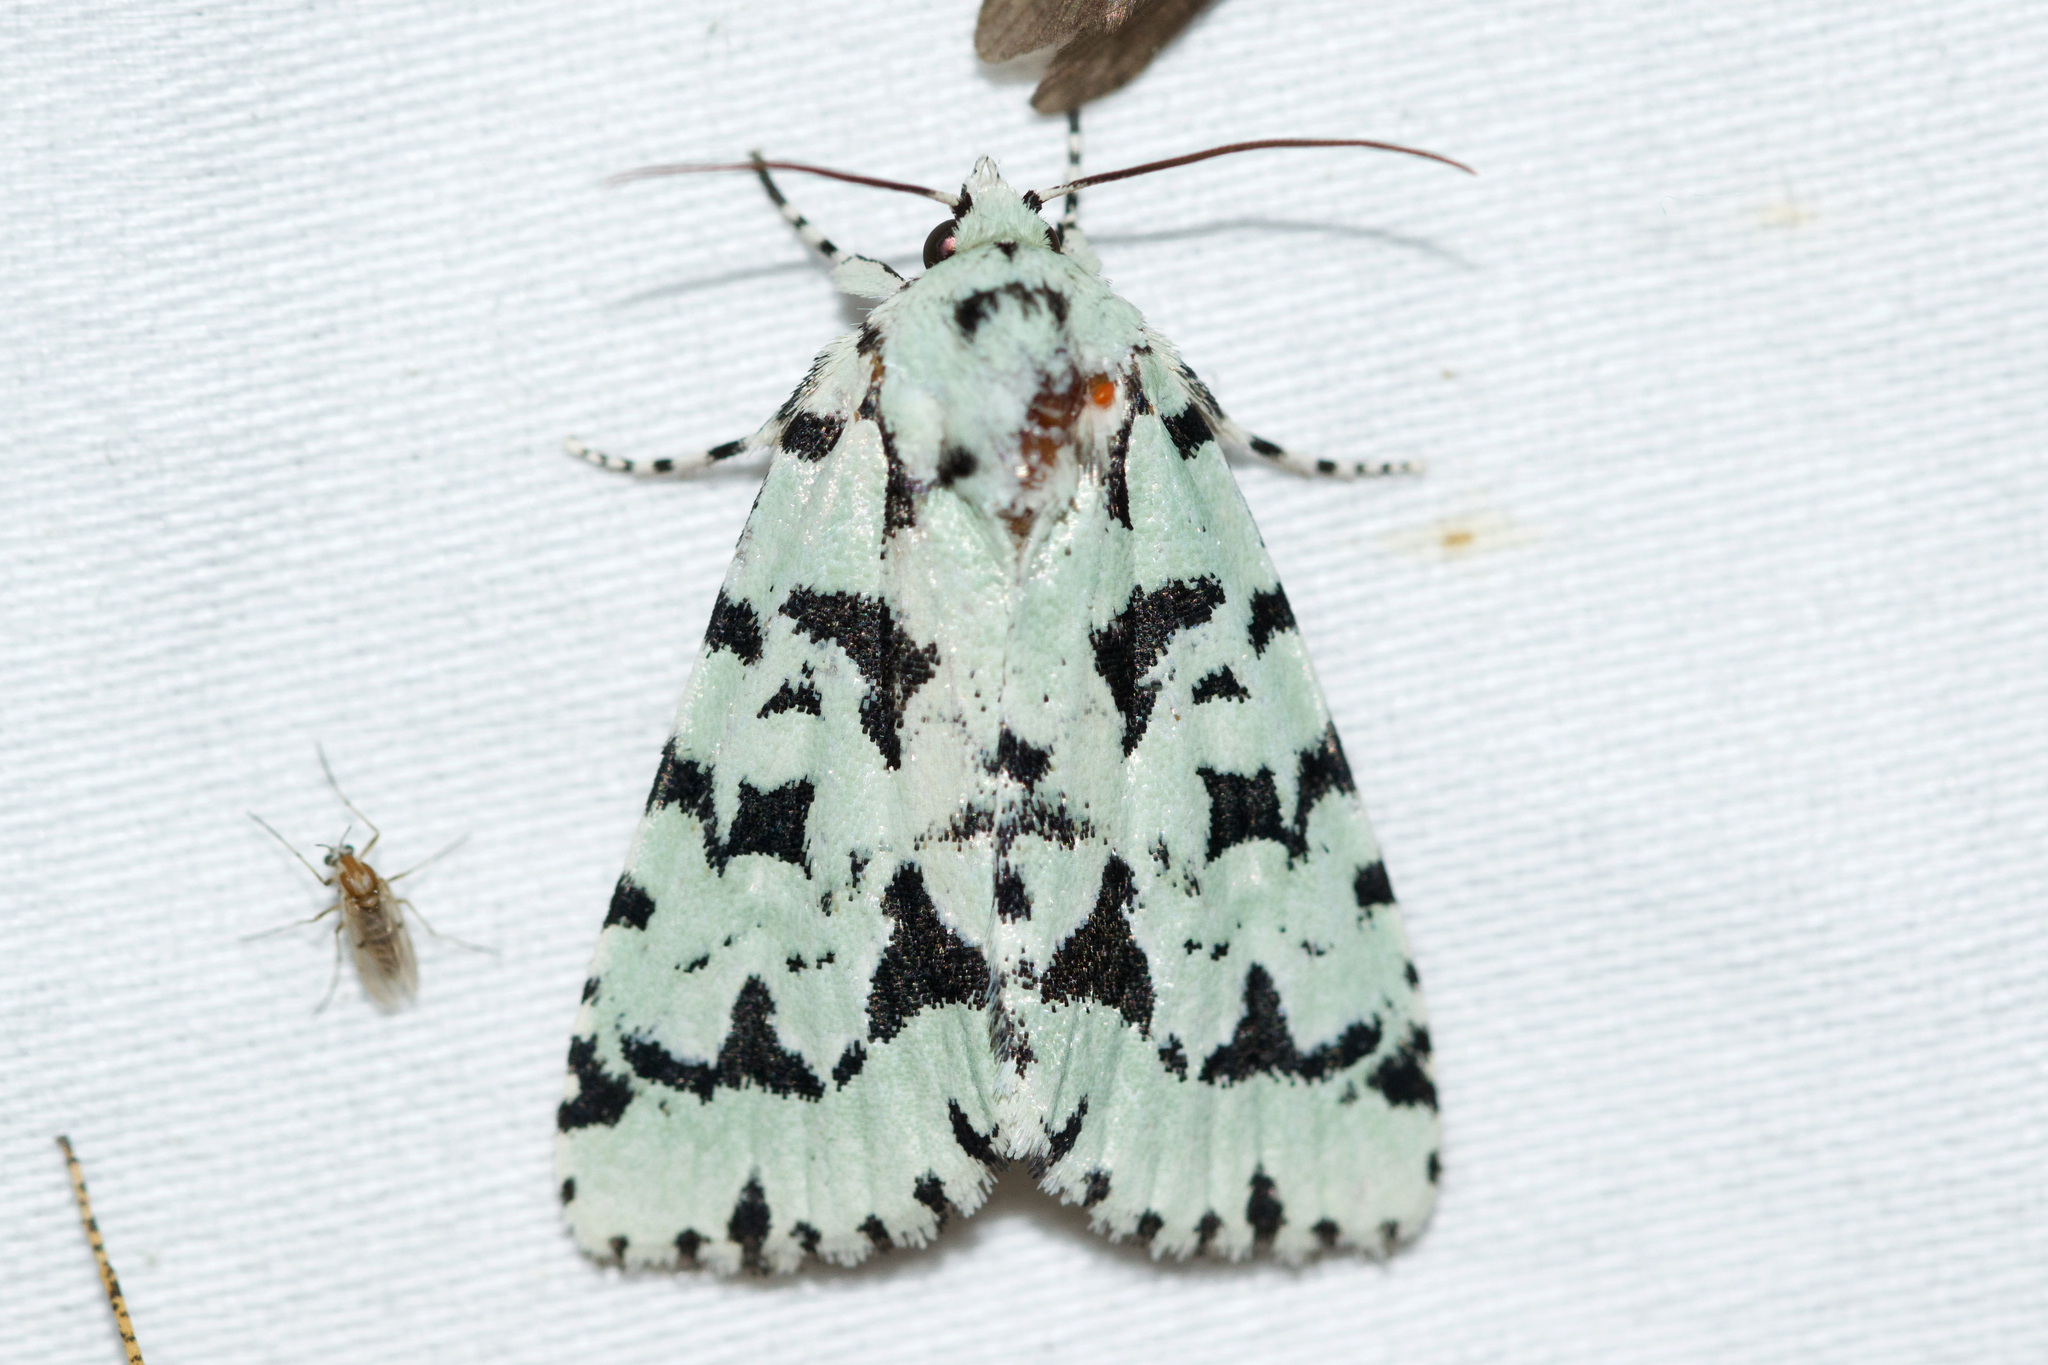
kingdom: Animalia
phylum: Arthropoda
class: Insecta
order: Lepidoptera
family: Noctuidae
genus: Acronicta
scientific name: Acronicta fallax
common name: Green marvel
